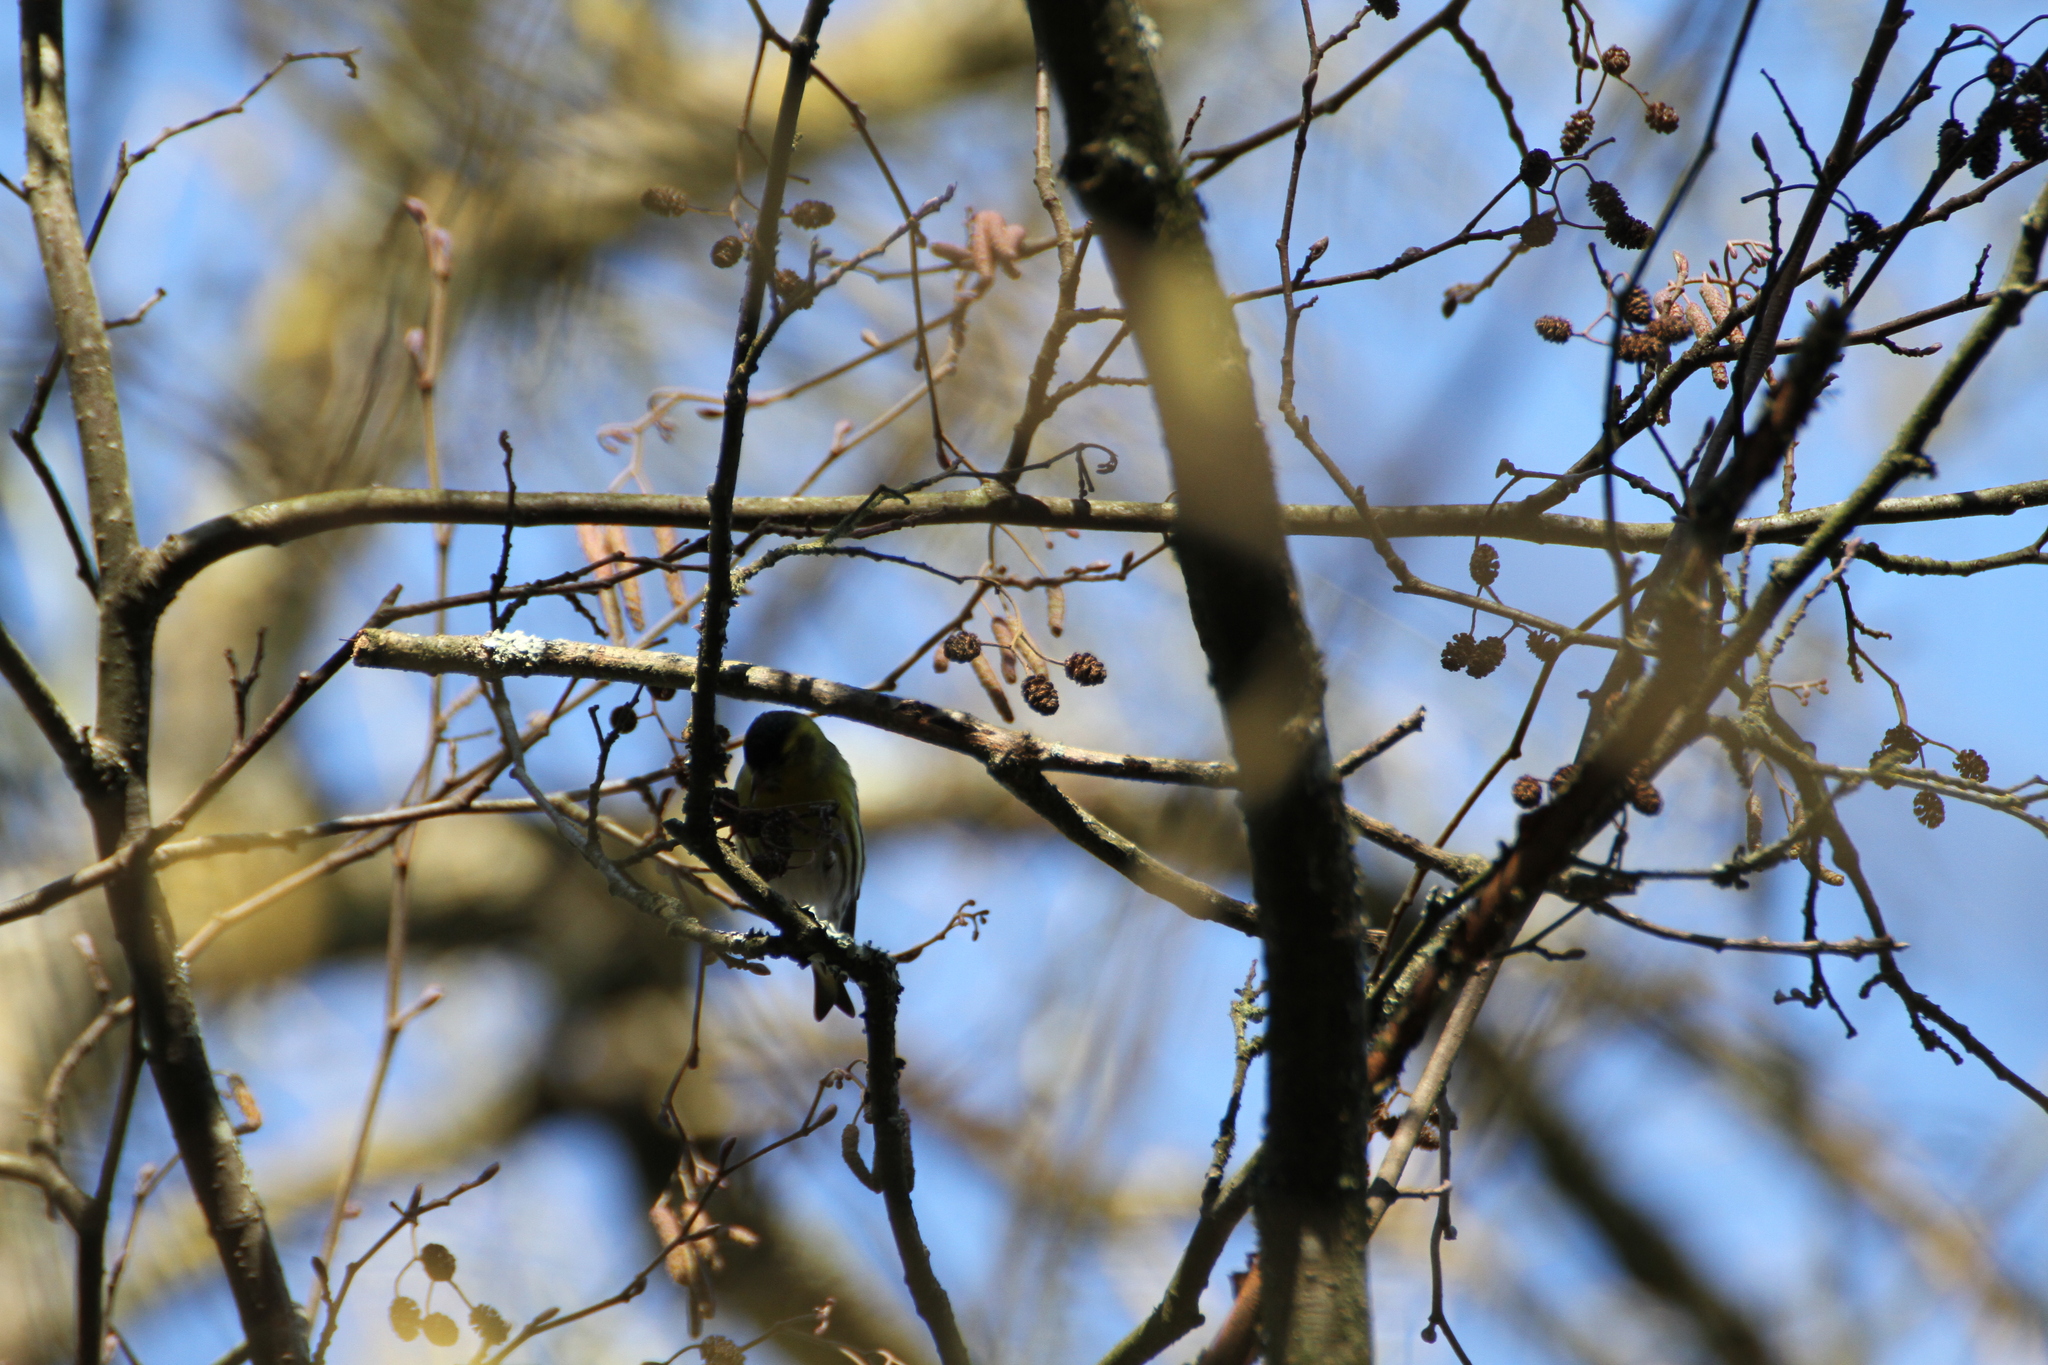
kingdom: Animalia
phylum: Chordata
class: Aves
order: Passeriformes
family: Fringillidae
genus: Spinus
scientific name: Spinus spinus
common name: Eurasian siskin
